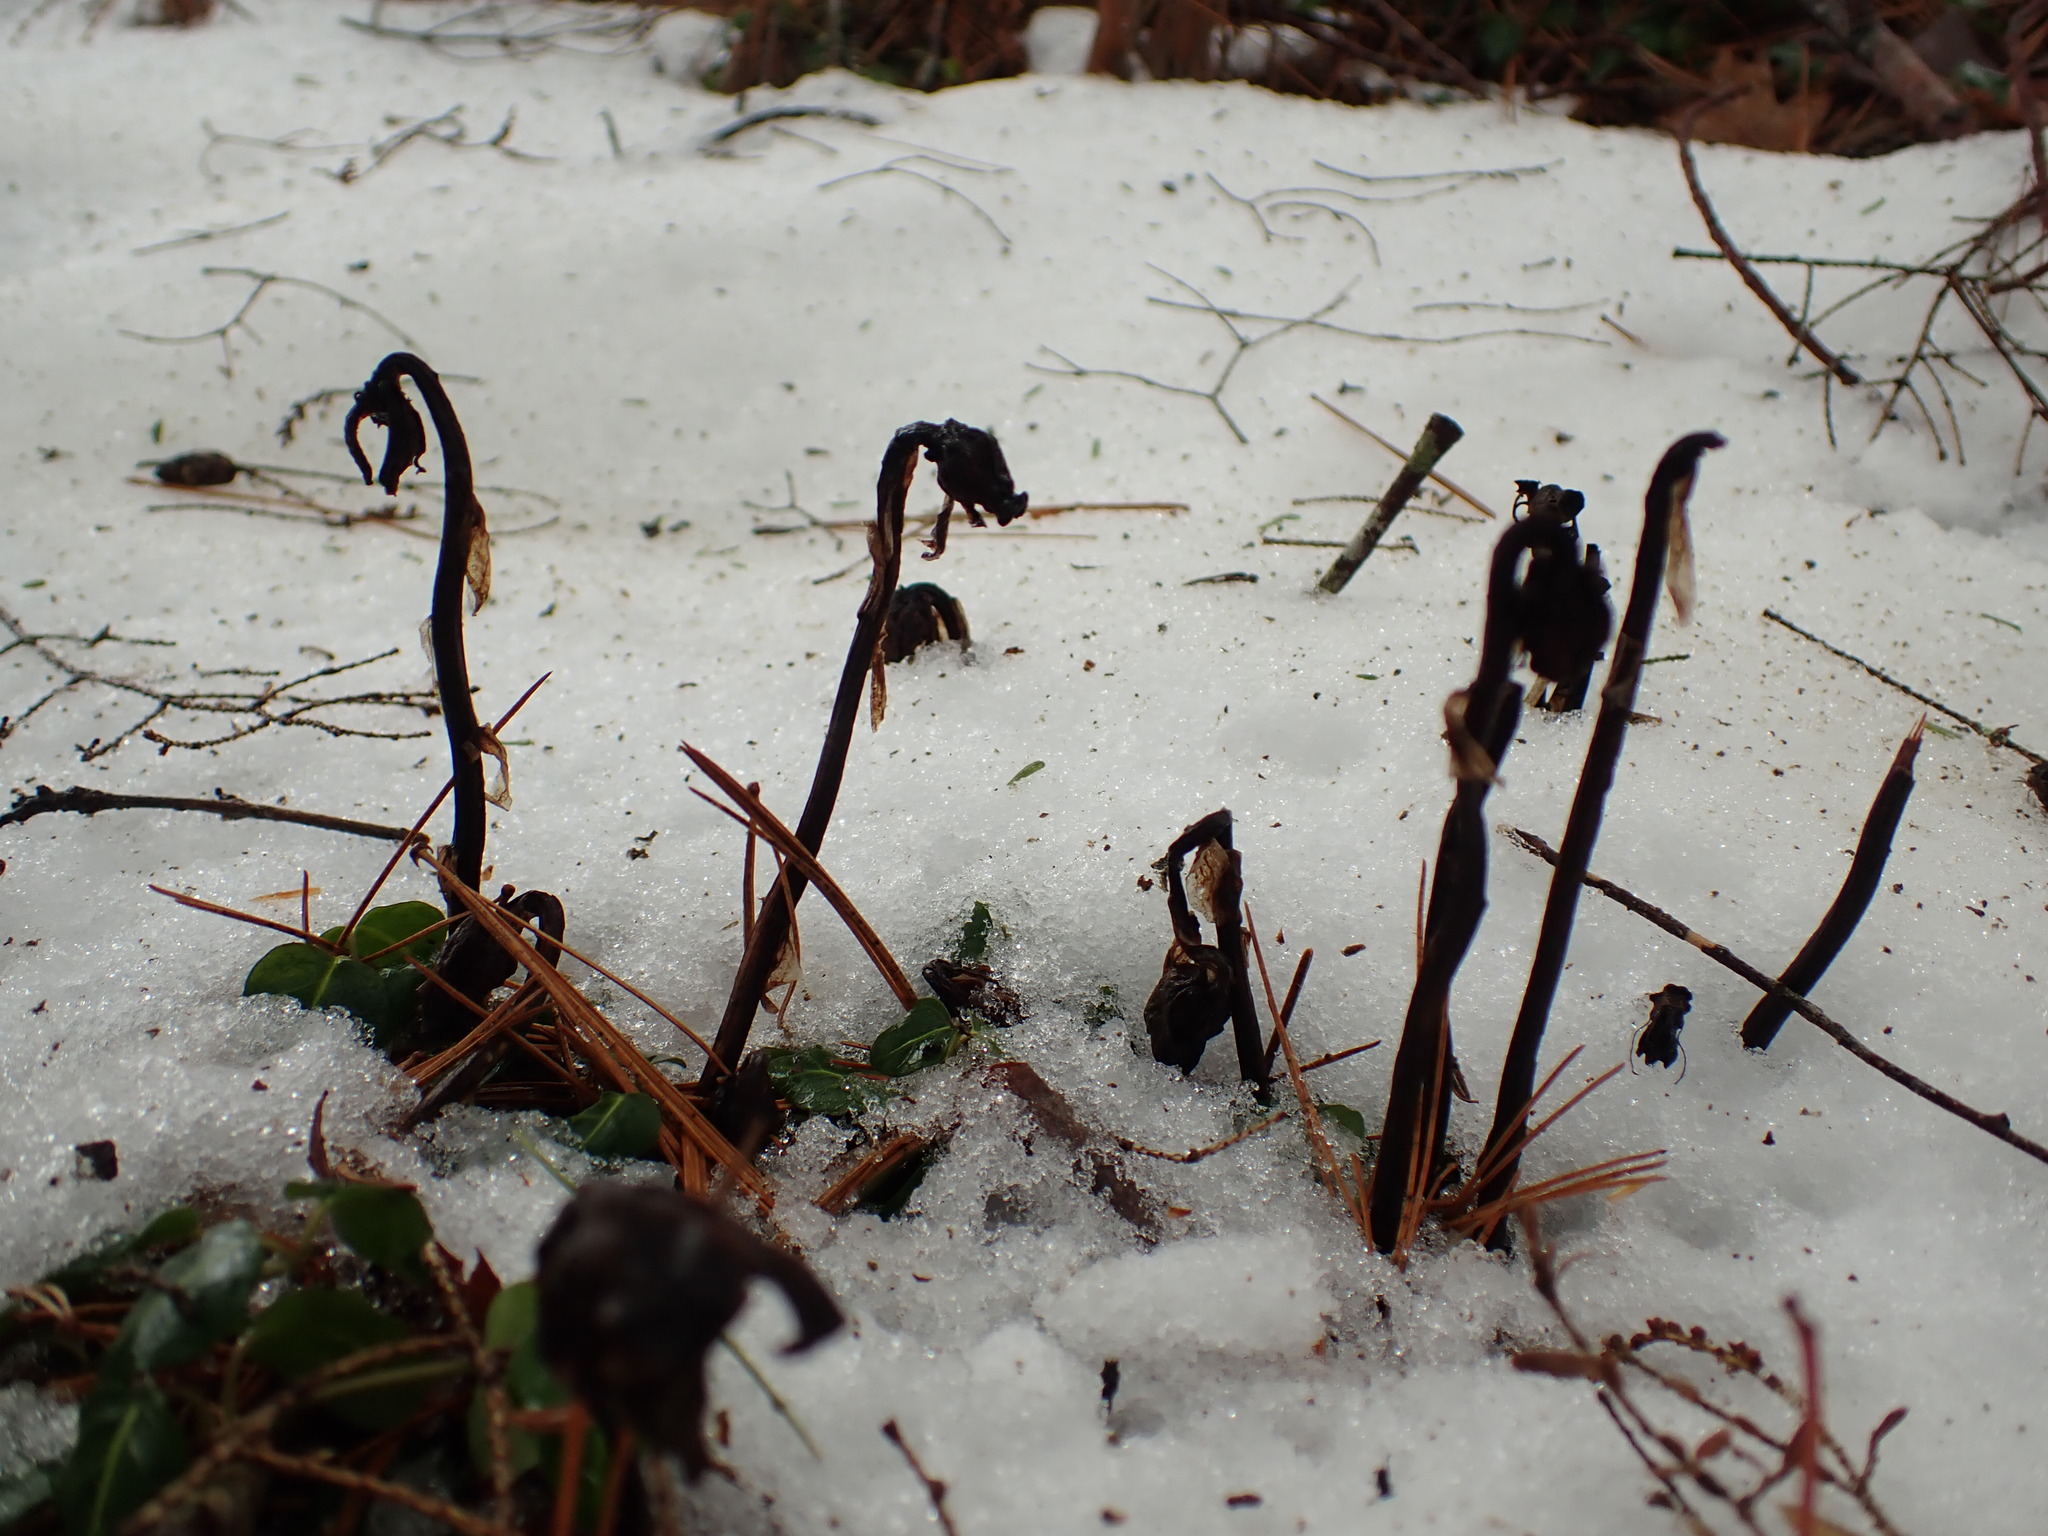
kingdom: Plantae
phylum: Tracheophyta
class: Magnoliopsida
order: Ericales
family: Ericaceae
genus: Monotropa
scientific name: Monotropa uniflora
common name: Convulsion root
